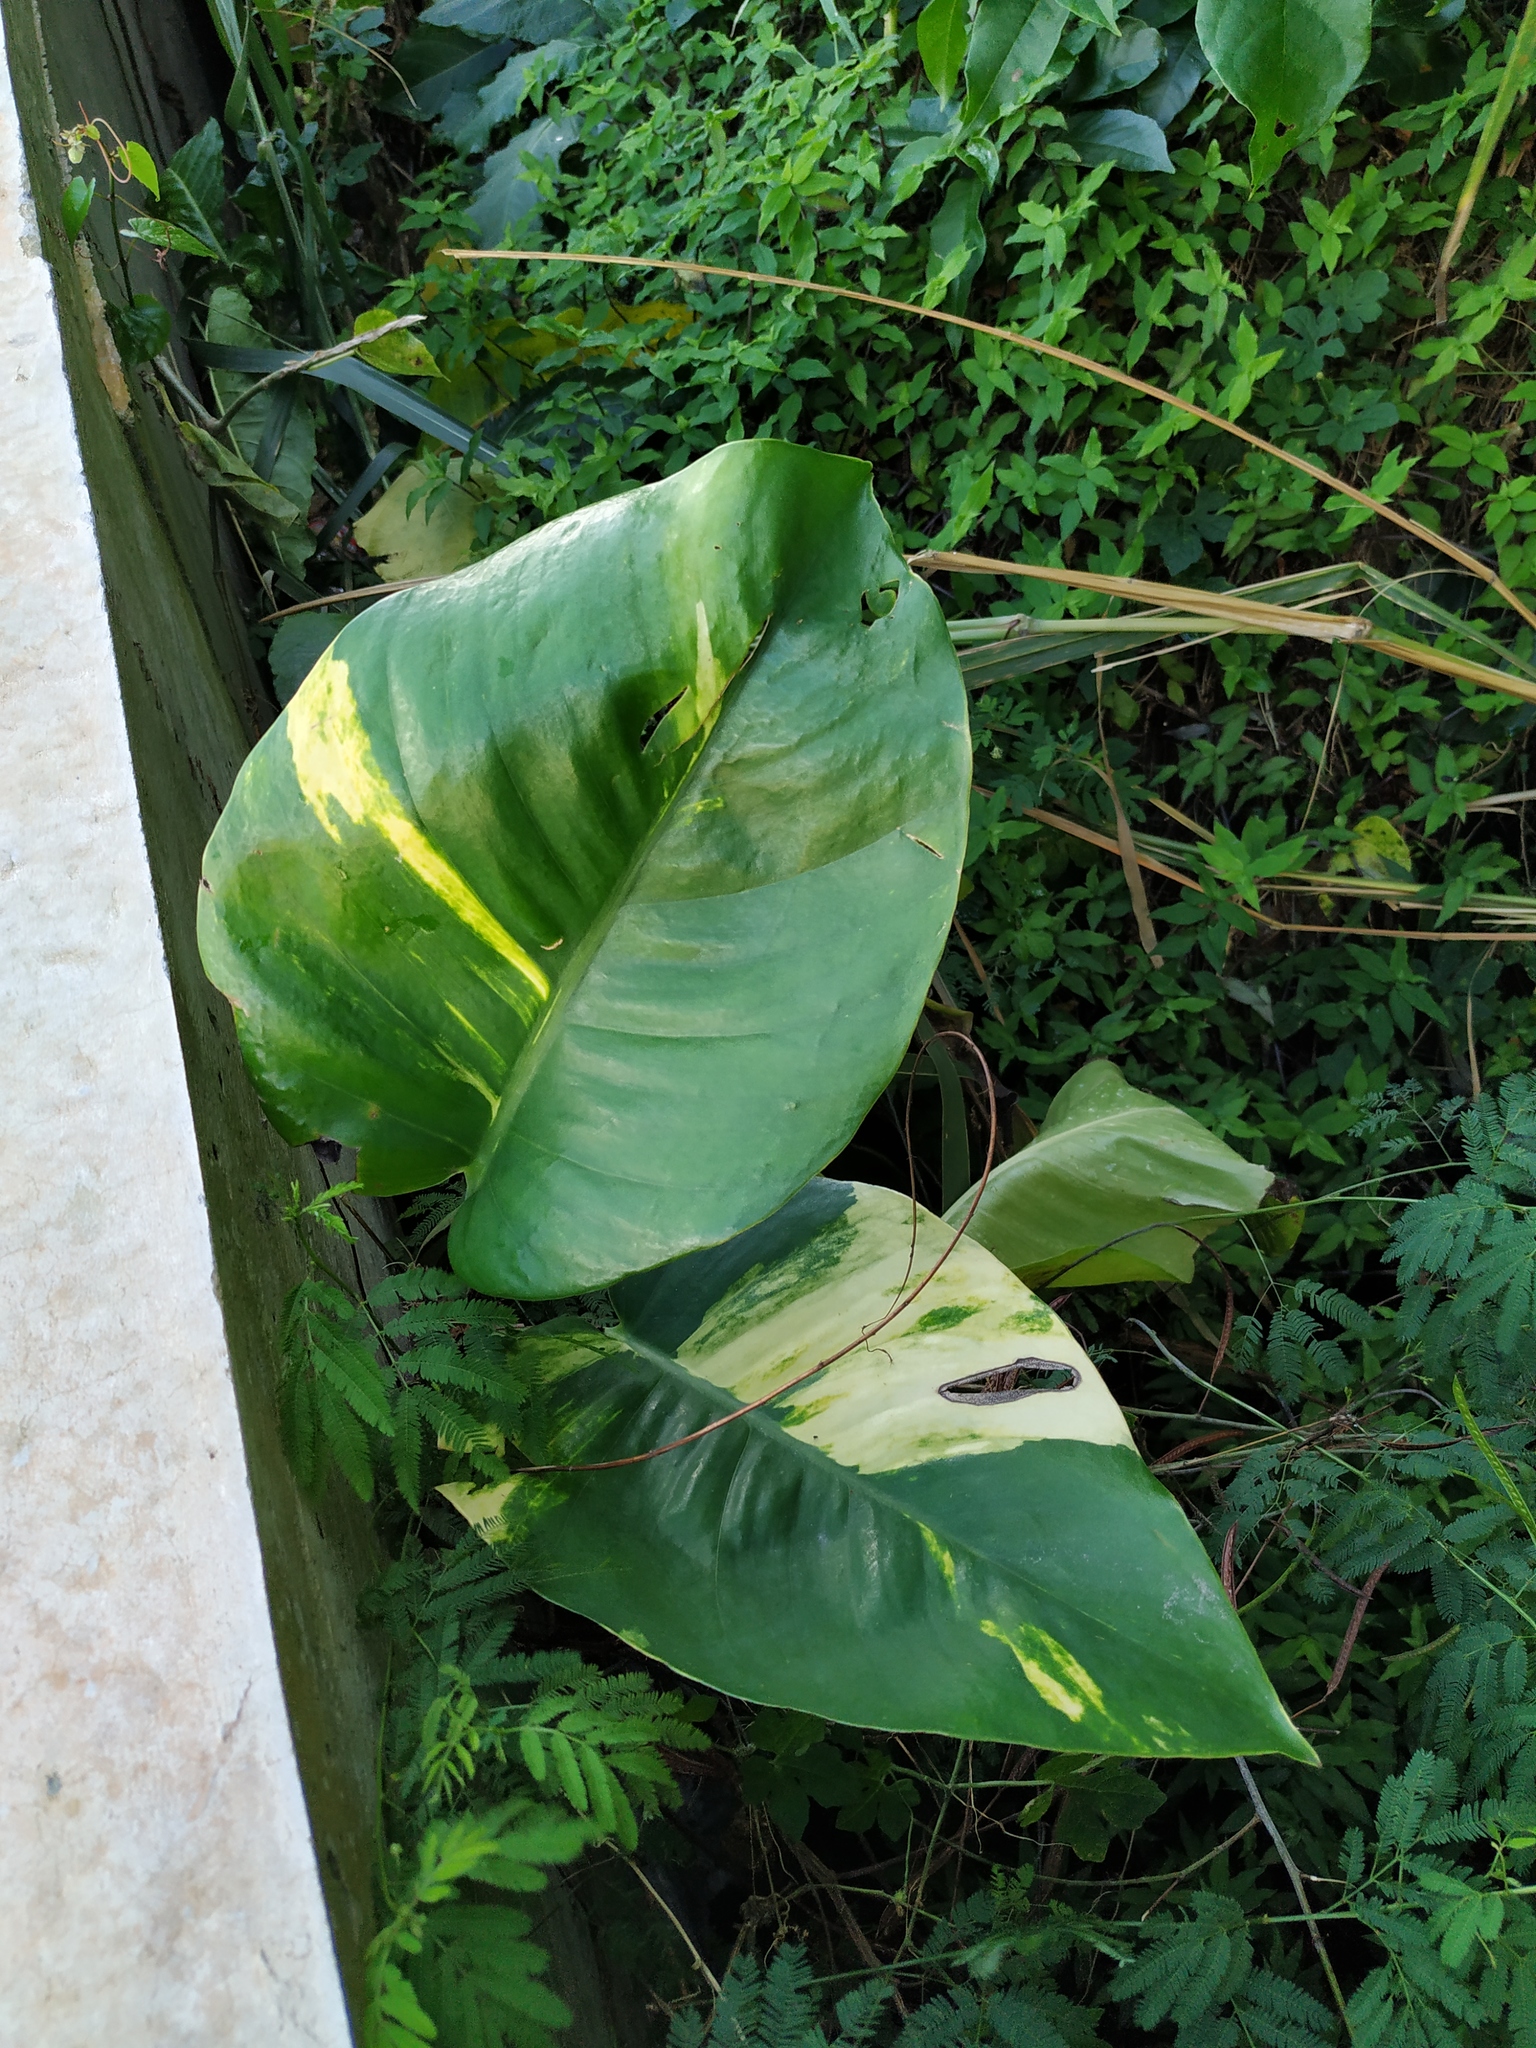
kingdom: Plantae
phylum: Tracheophyta
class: Liliopsida
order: Alismatales
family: Araceae
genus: Epipremnum
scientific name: Epipremnum aureum
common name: Golden hunter's-robe
